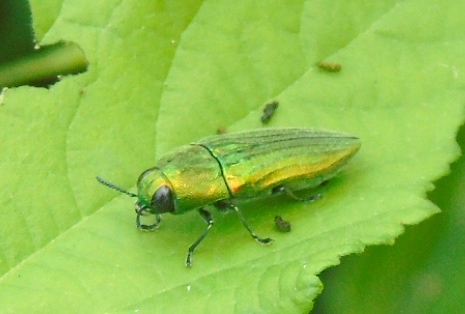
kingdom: Animalia
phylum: Arthropoda
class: Insecta
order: Coleoptera
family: Buprestidae
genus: Agaeocera
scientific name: Agaeocera scintillans
